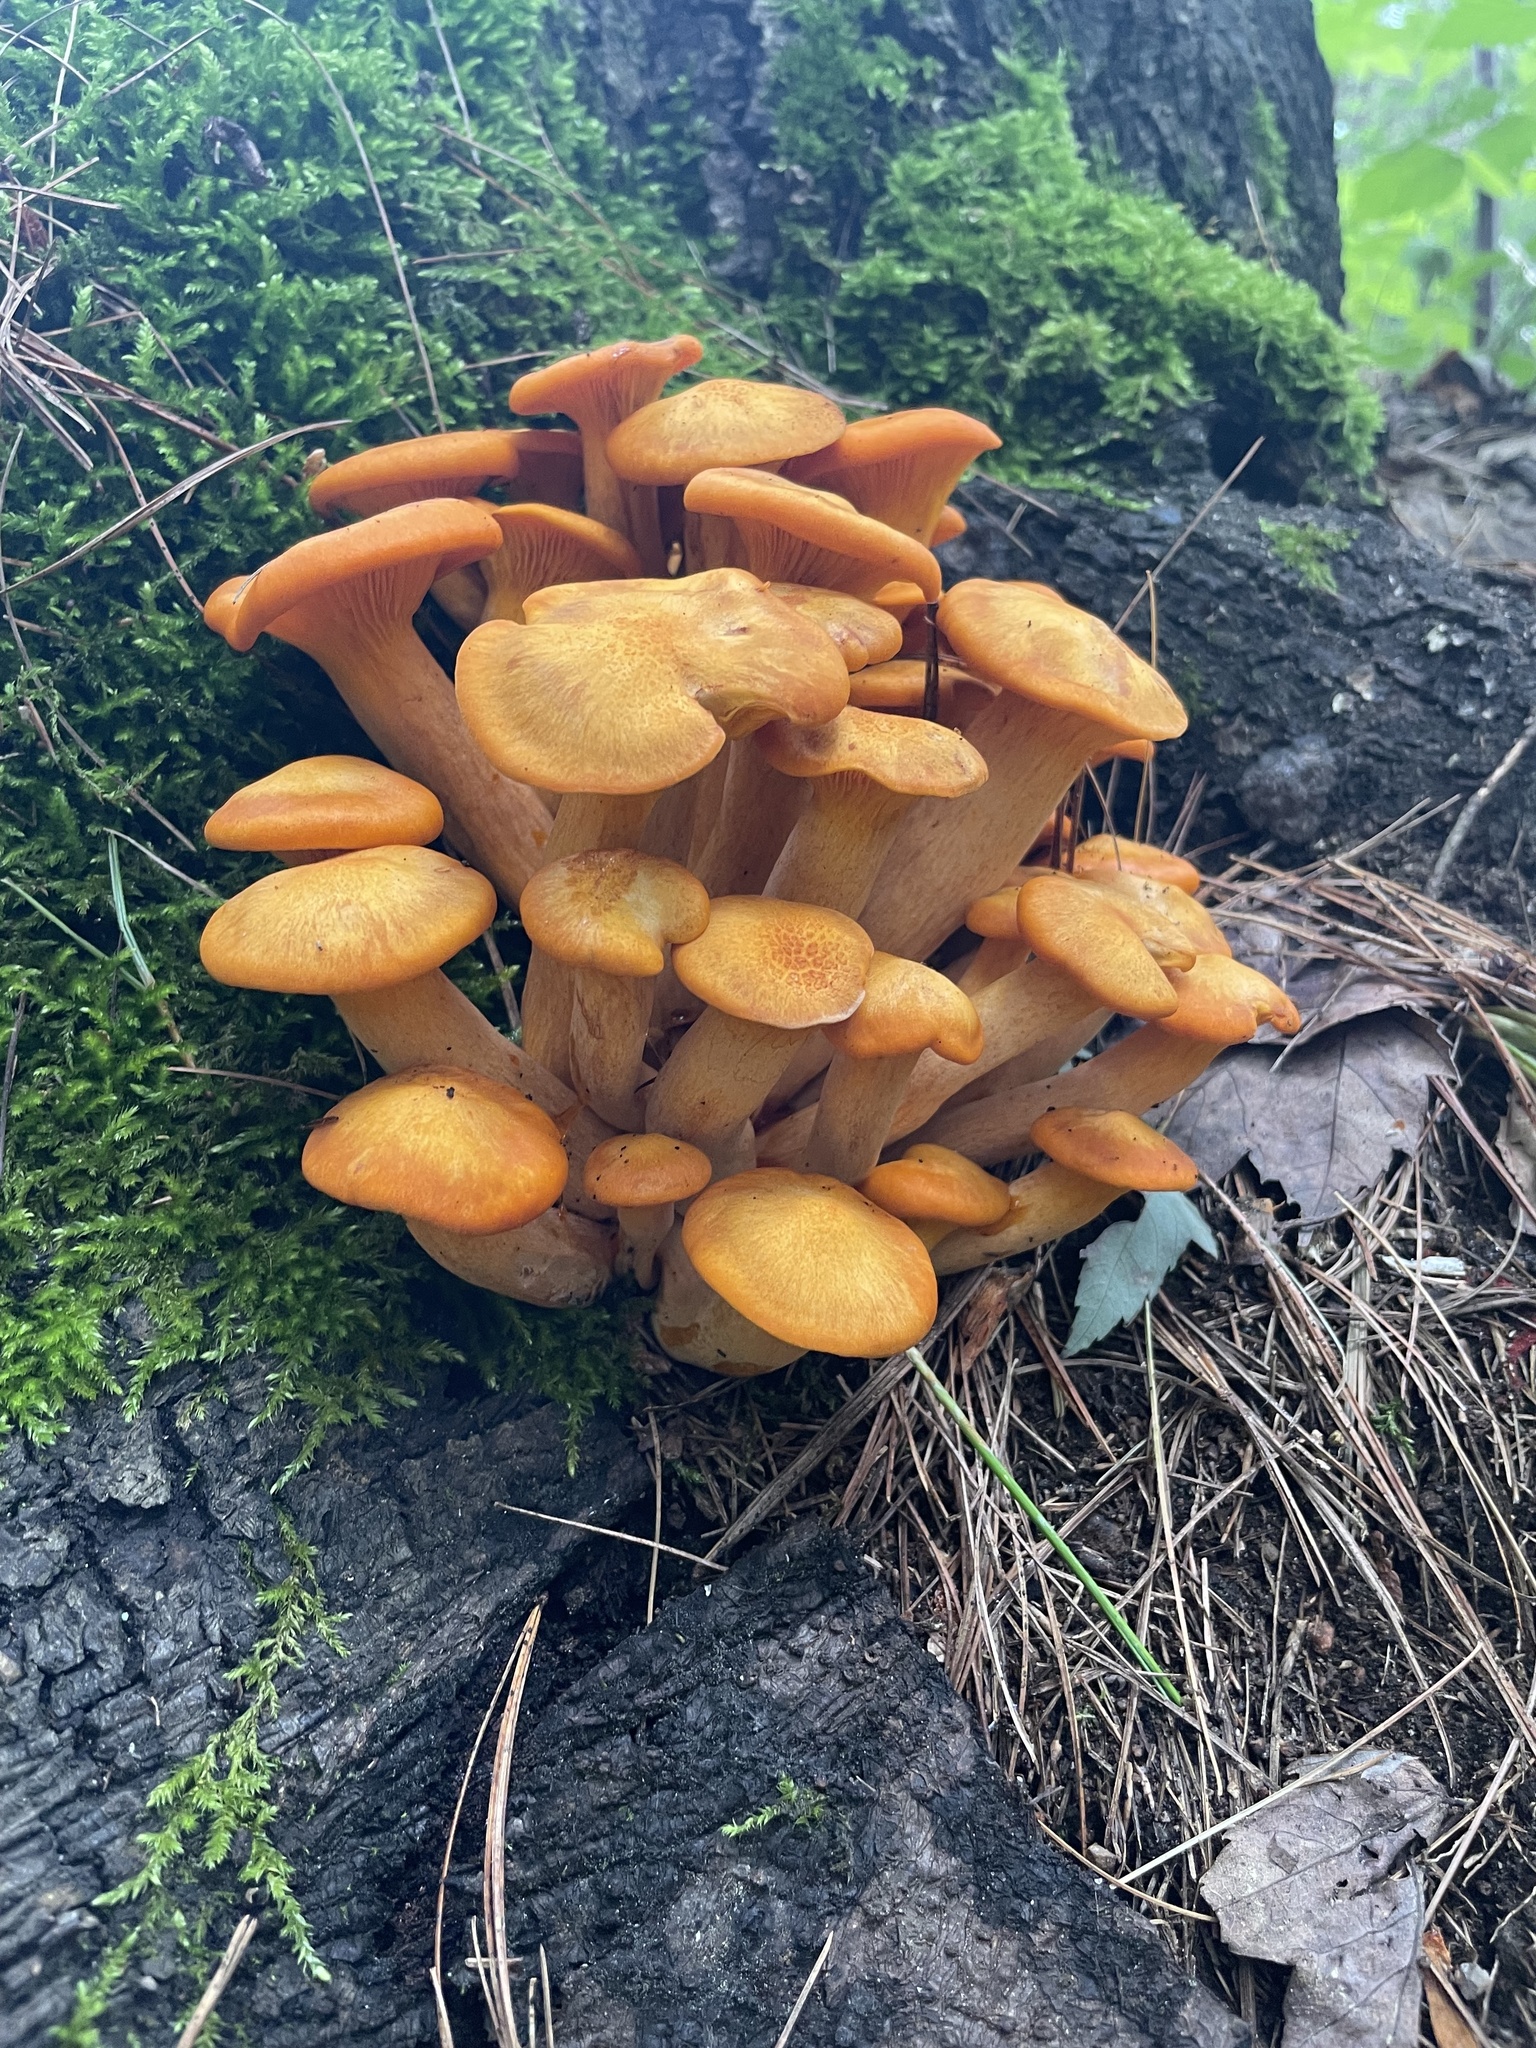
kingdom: Fungi
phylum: Basidiomycota
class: Agaricomycetes
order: Agaricales
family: Omphalotaceae
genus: Omphalotus
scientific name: Omphalotus illudens
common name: Jack o lantern
